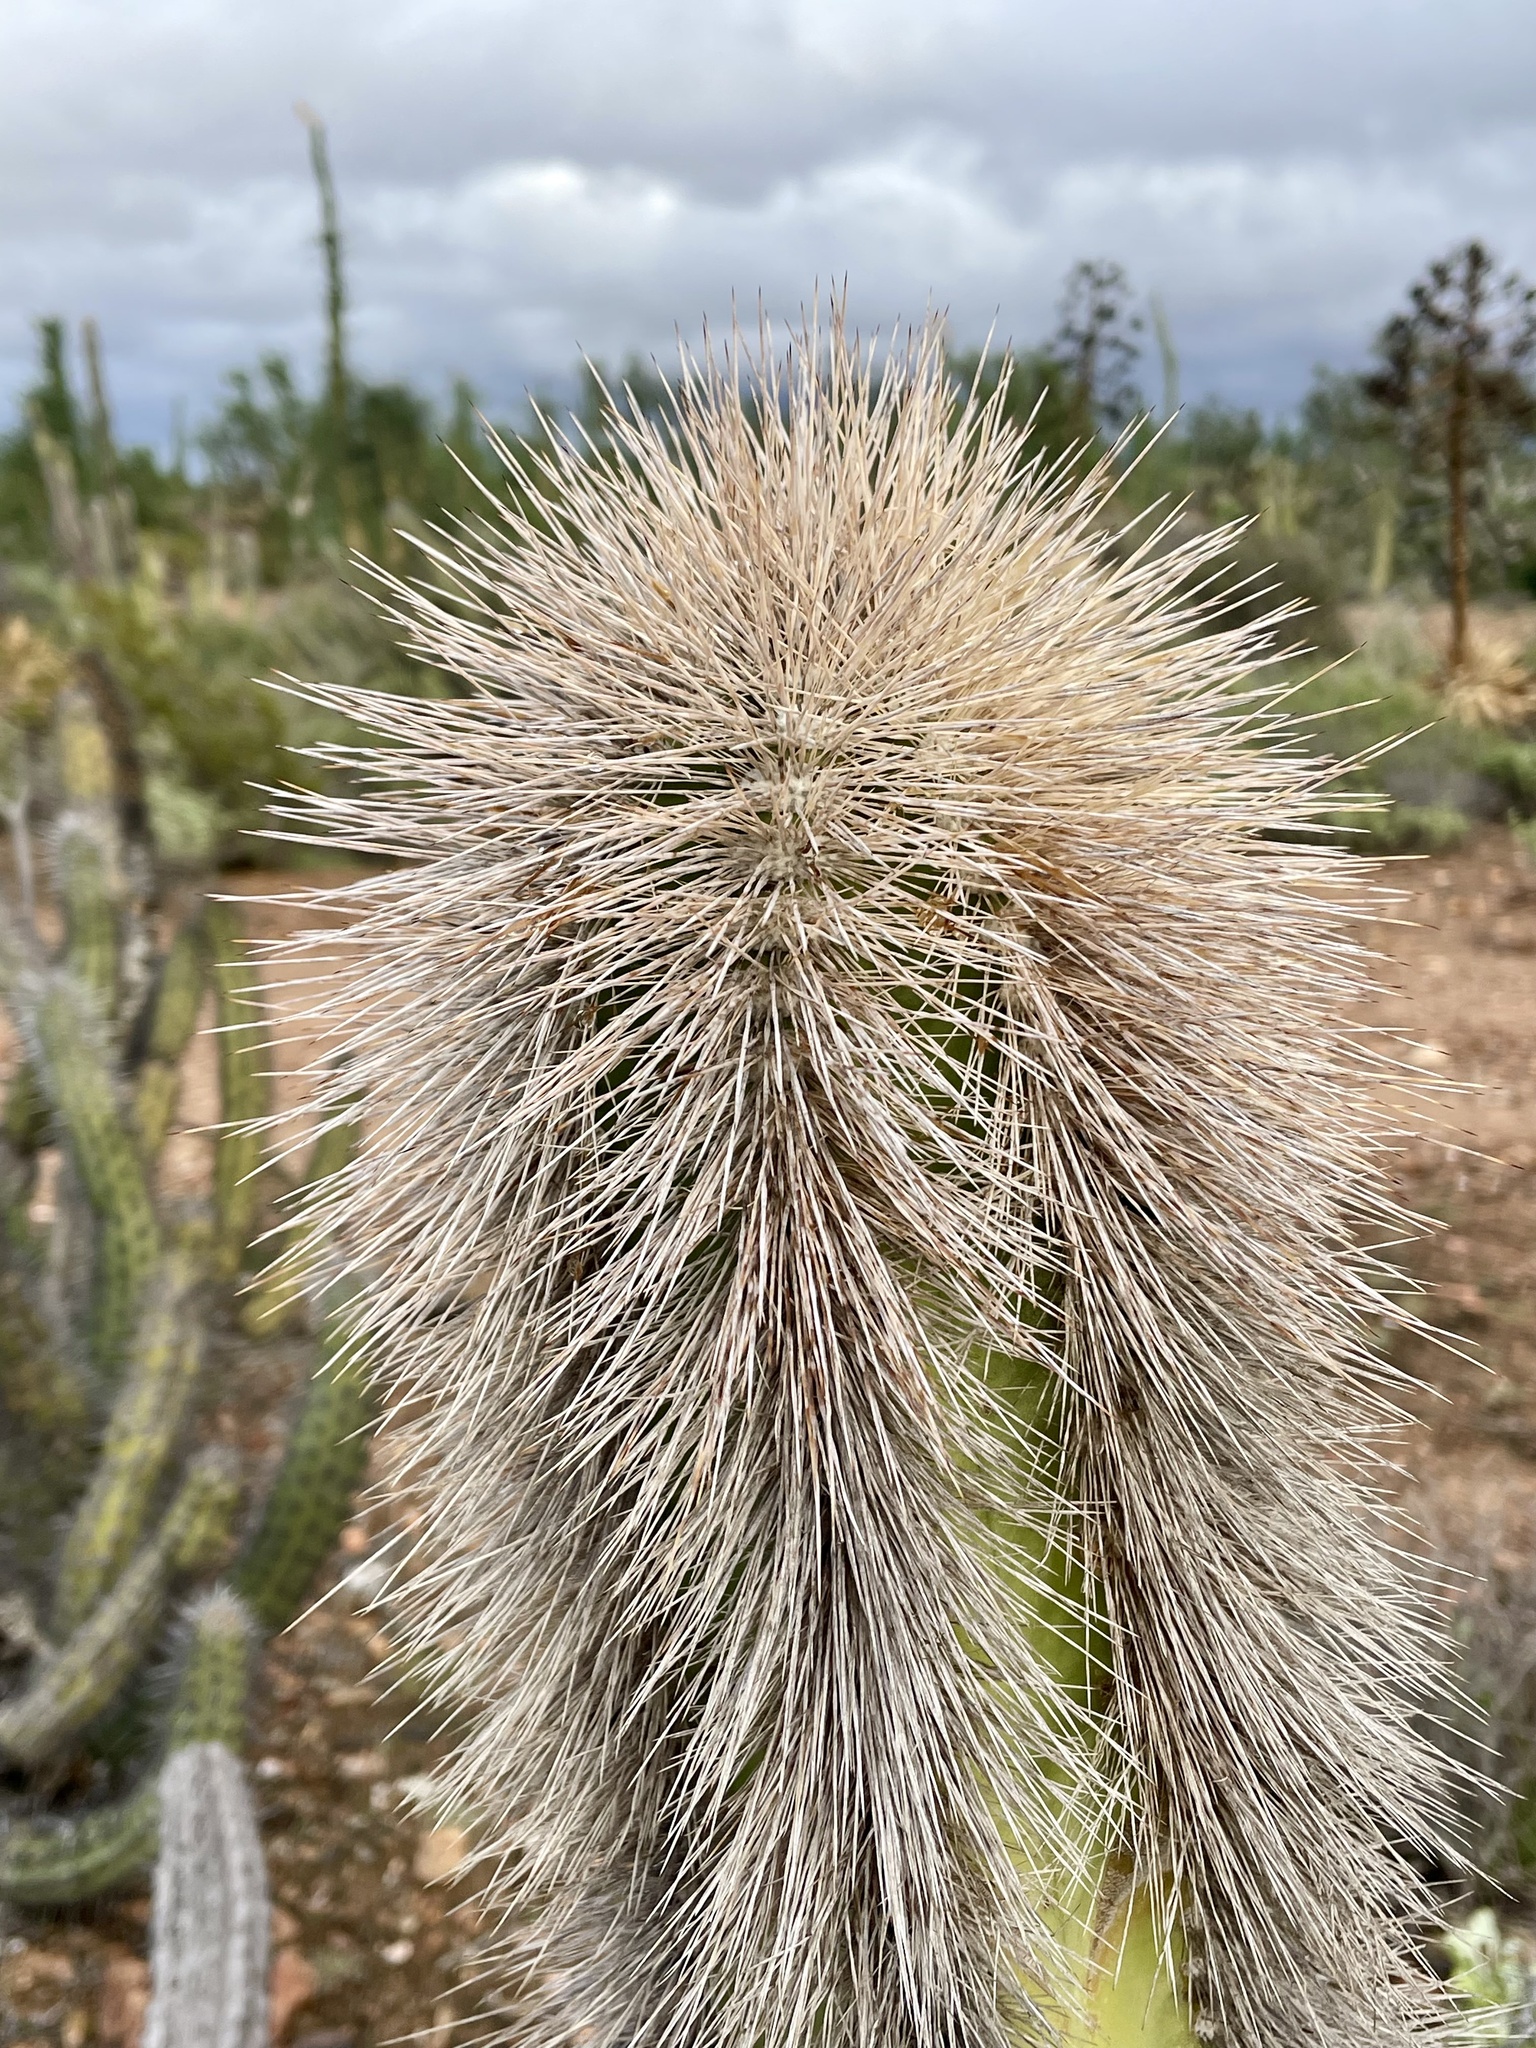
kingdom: Plantae
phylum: Tracheophyta
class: Magnoliopsida
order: Caryophyllales
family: Cactaceae
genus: Pachycereus
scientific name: Pachycereus schottii
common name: Senita cactus
